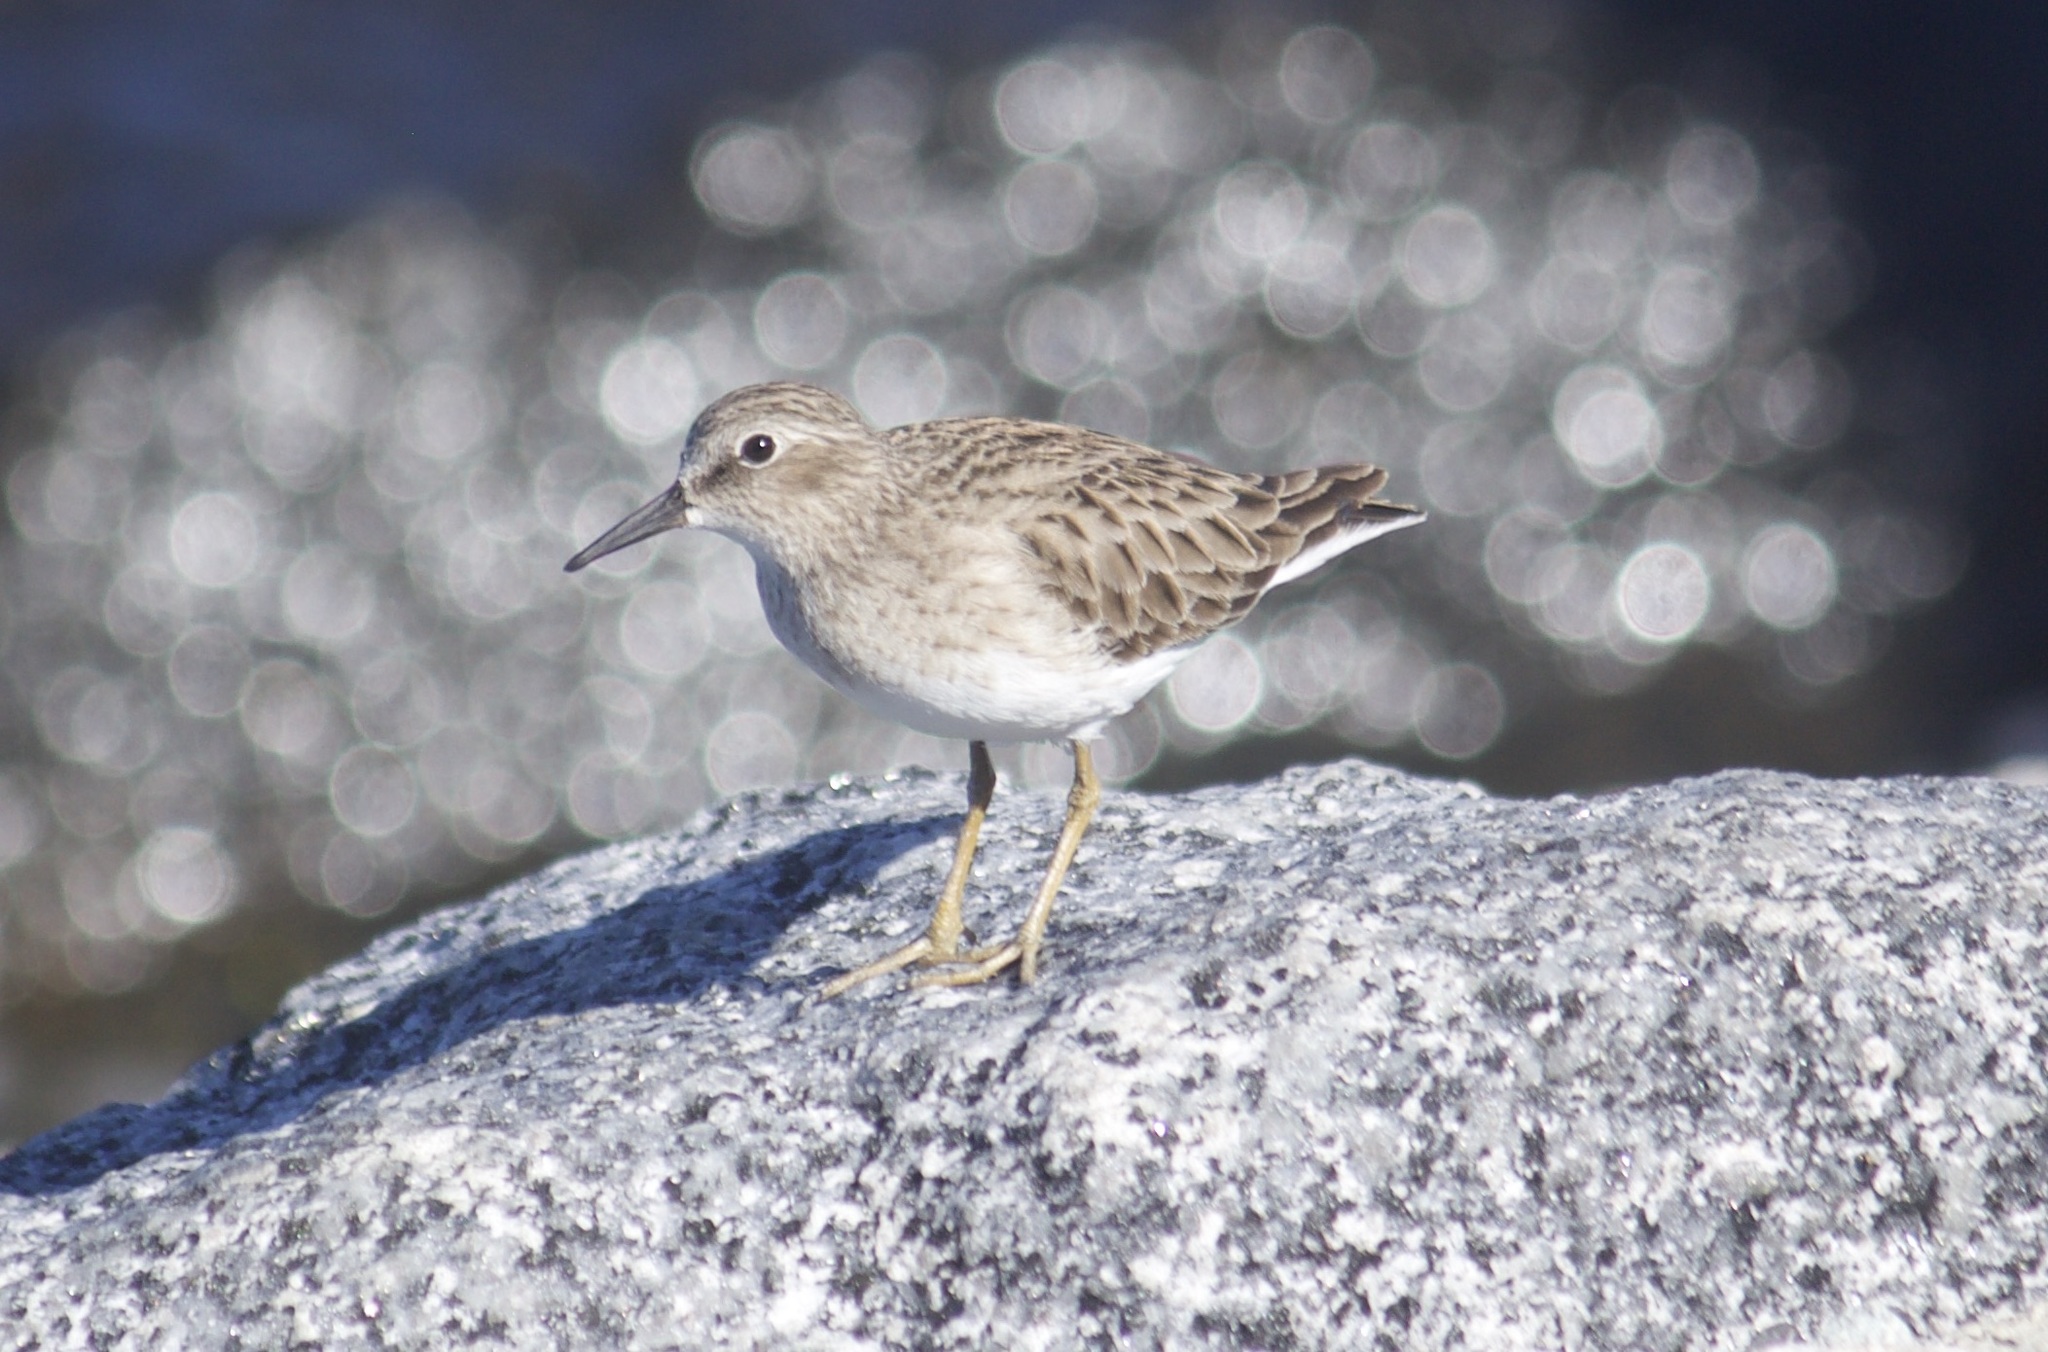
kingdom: Animalia
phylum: Chordata
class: Aves
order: Charadriiformes
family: Scolopacidae
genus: Calidris
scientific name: Calidris minutilla
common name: Least sandpiper
